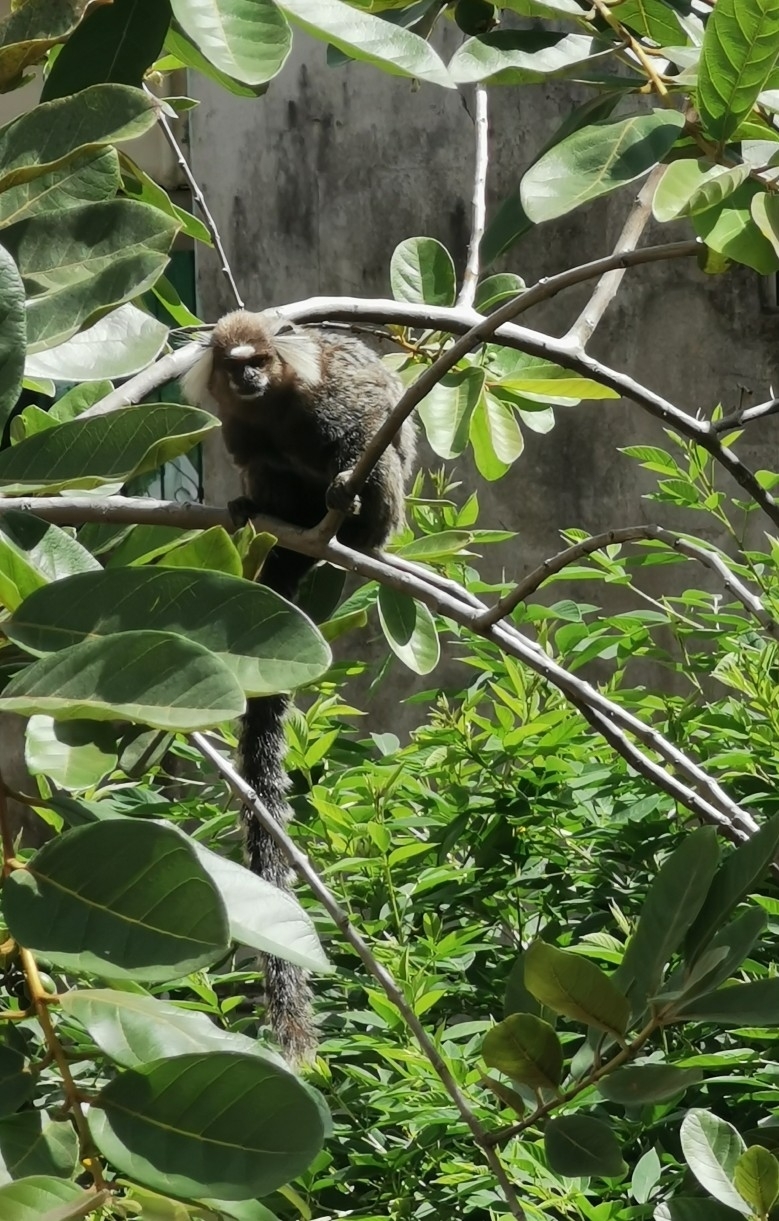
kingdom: Animalia
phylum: Chordata
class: Mammalia
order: Primates
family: Callitrichidae
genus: Callithrix
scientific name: Callithrix jacchus
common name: Common marmoset
